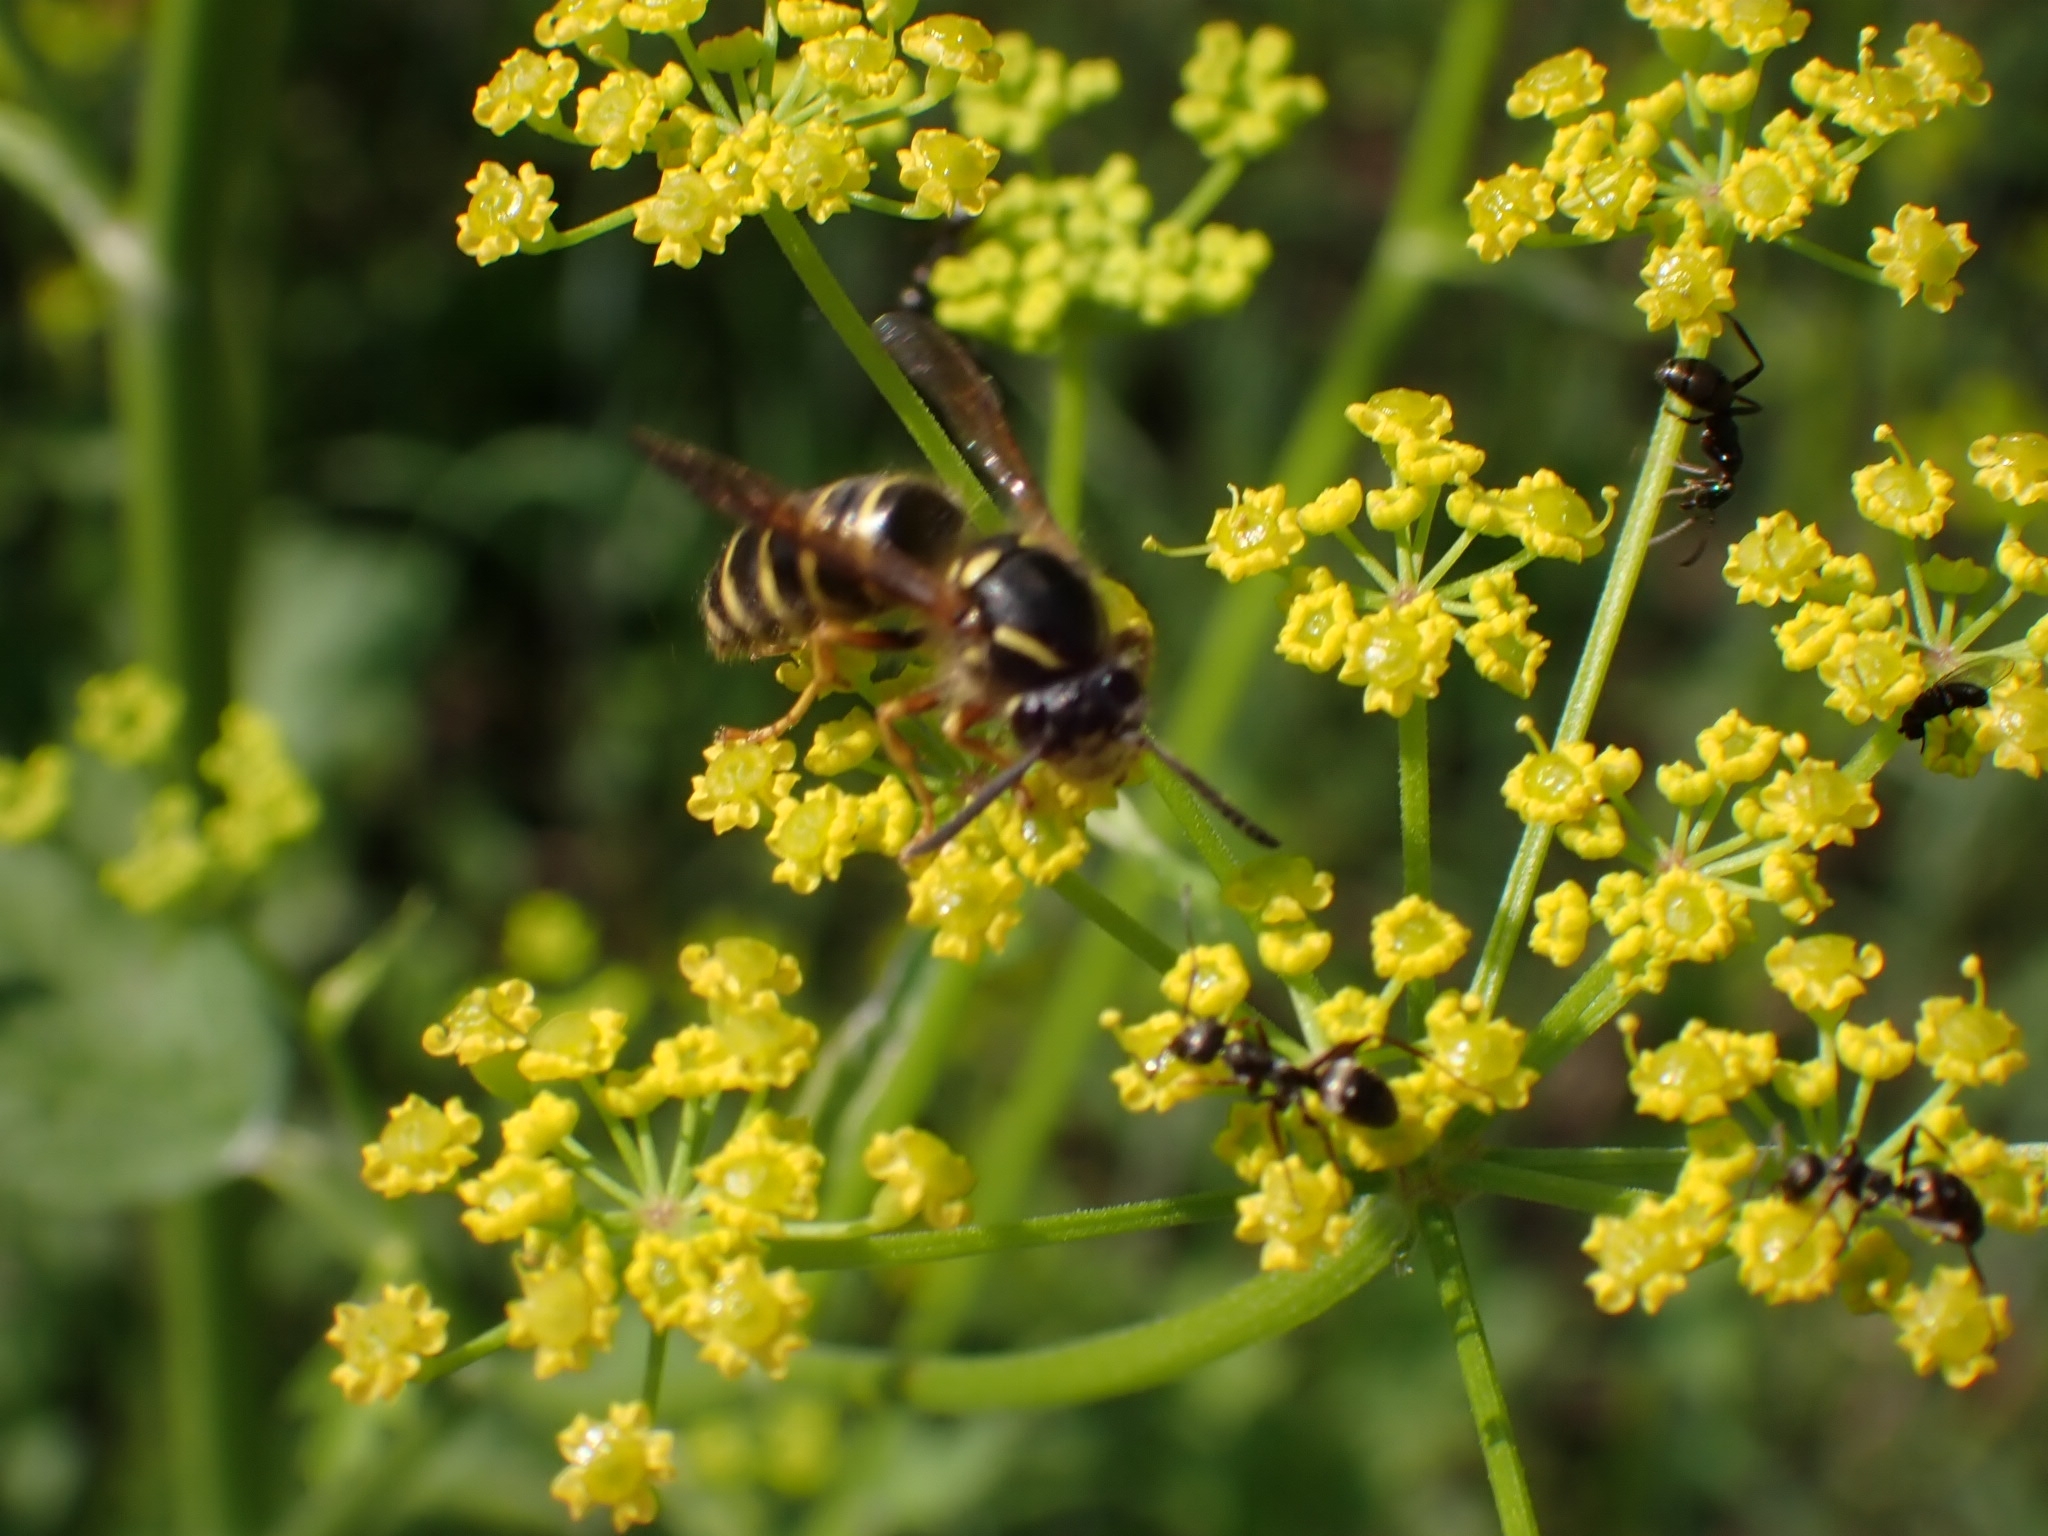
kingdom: Animalia
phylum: Arthropoda
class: Insecta
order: Hymenoptera
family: Vespidae
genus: Dolichovespula
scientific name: Dolichovespula saxonica
